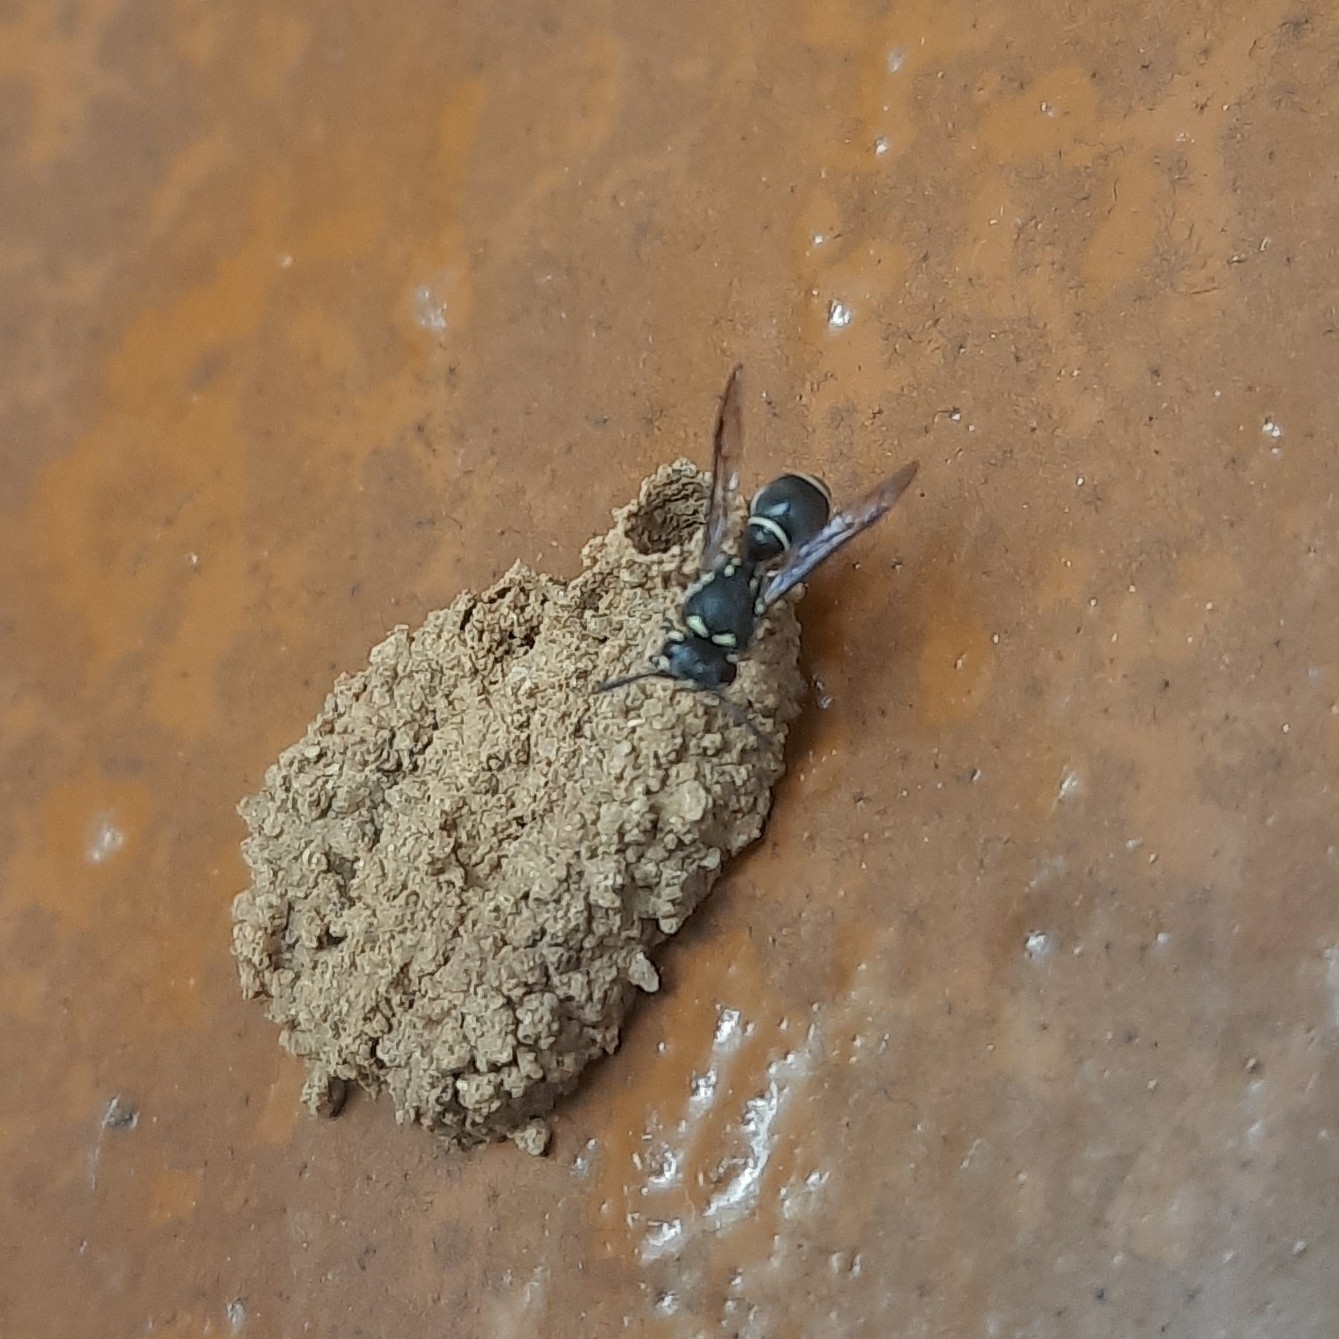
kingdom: Animalia
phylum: Arthropoda
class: Insecta
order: Hymenoptera
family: Eumenidae
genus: Paraleptomenes
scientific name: Paraleptomenes miniatus
